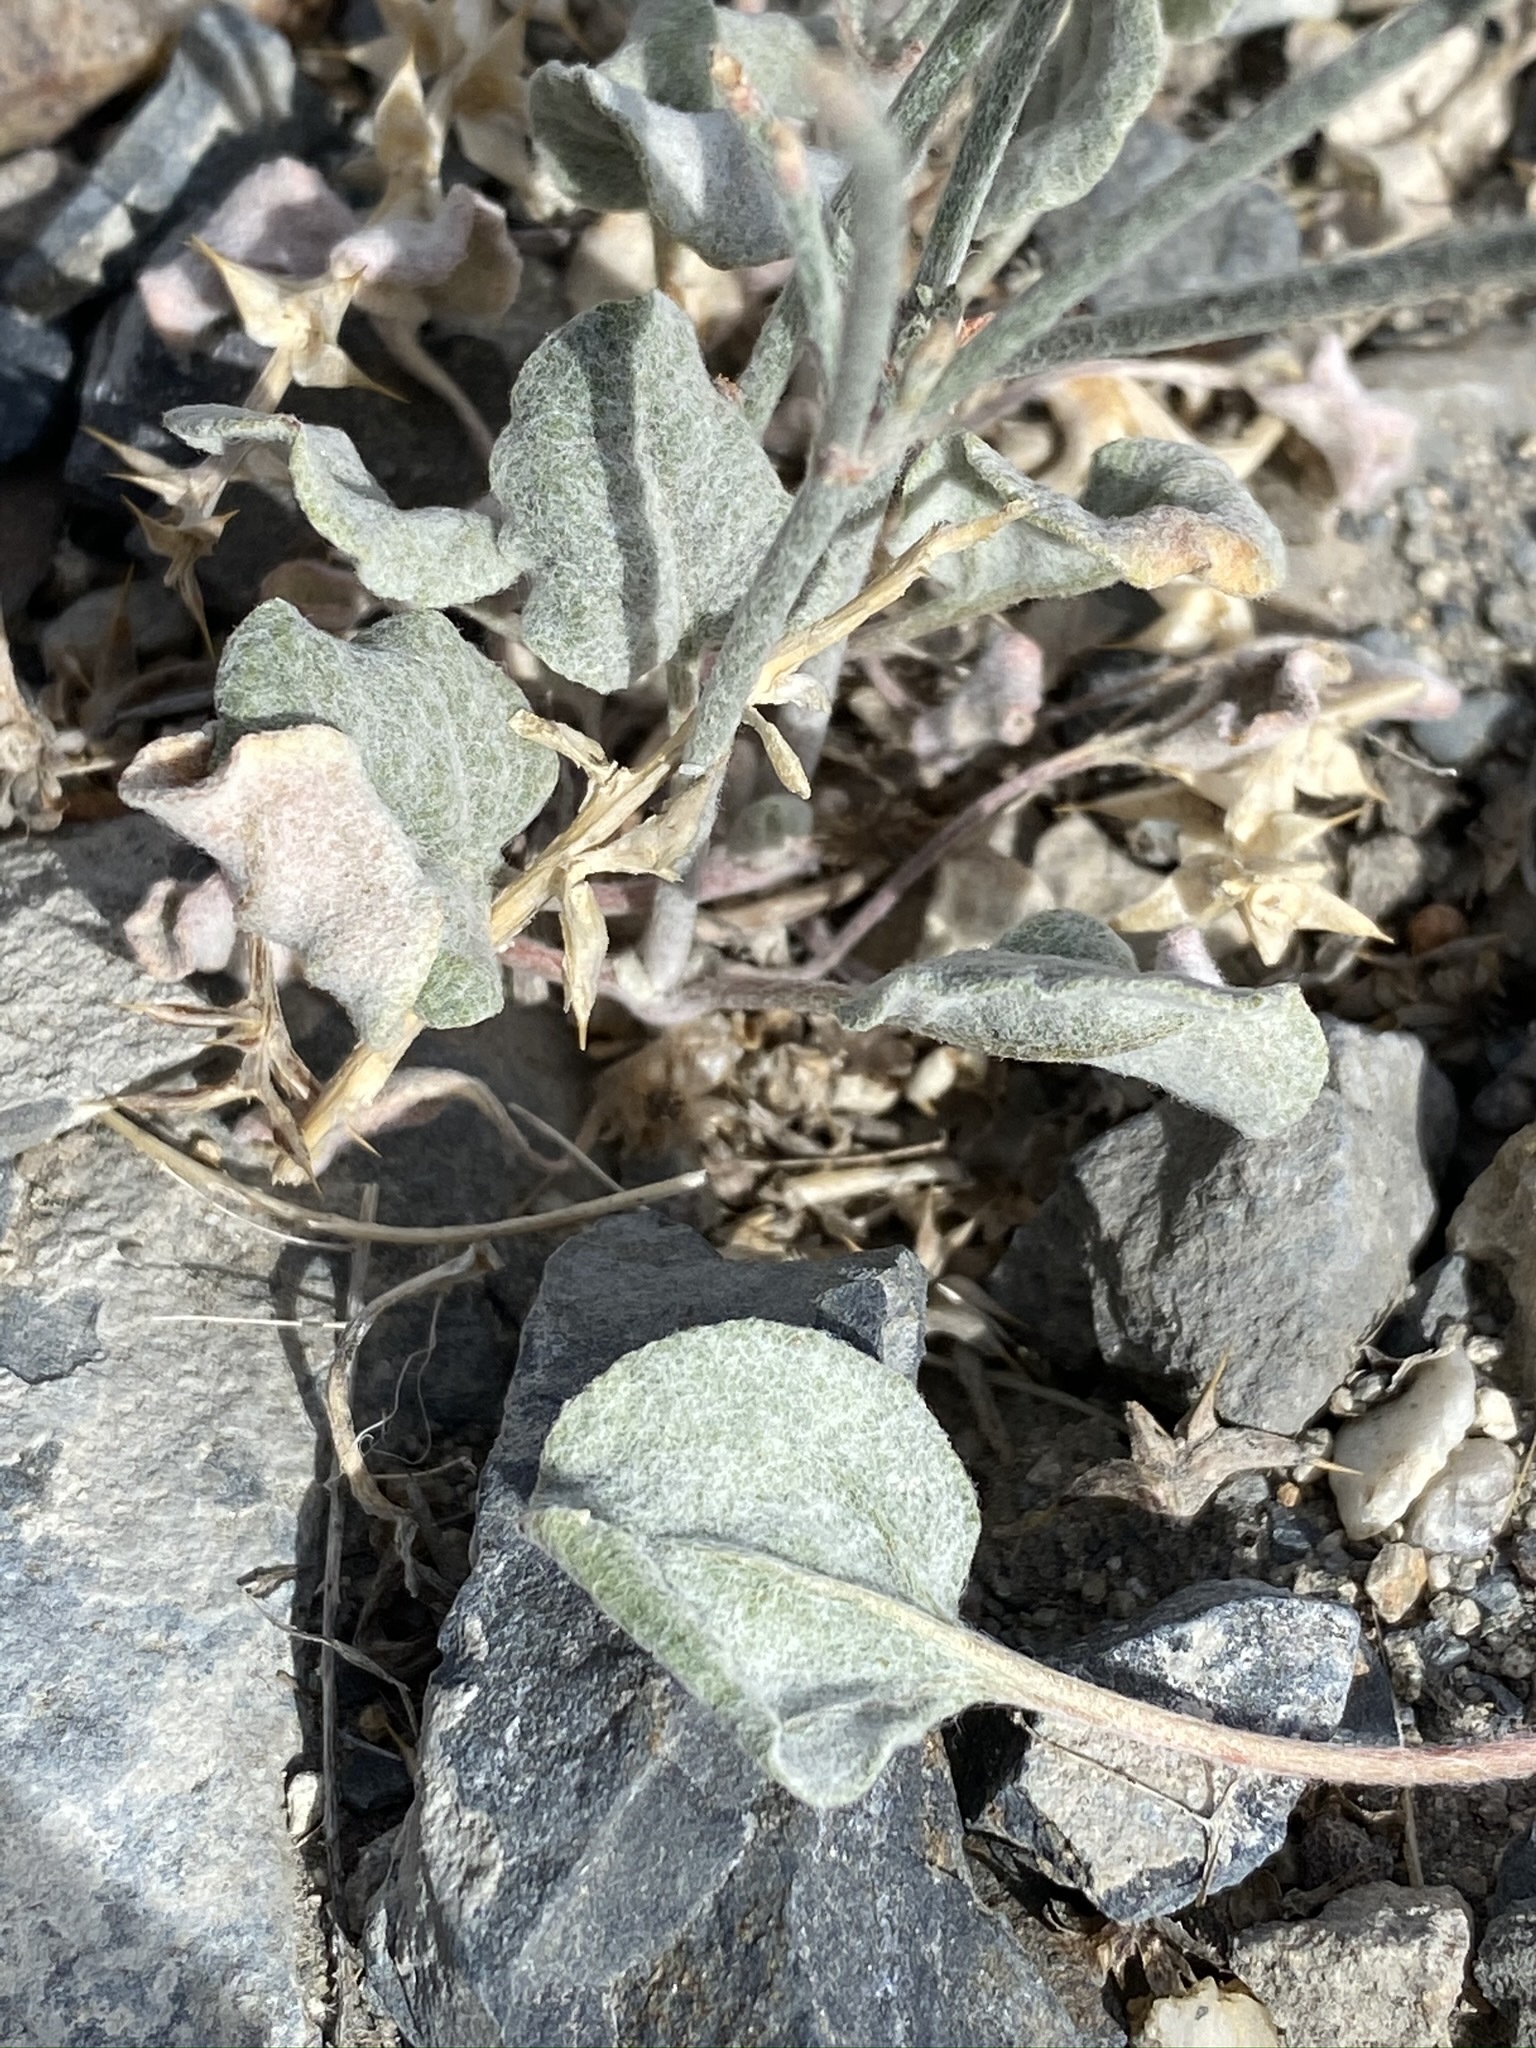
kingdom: Plantae
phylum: Tracheophyta
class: Magnoliopsida
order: Caryophyllales
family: Polygonaceae
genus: Eriogonum
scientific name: Eriogonum palmerianum
